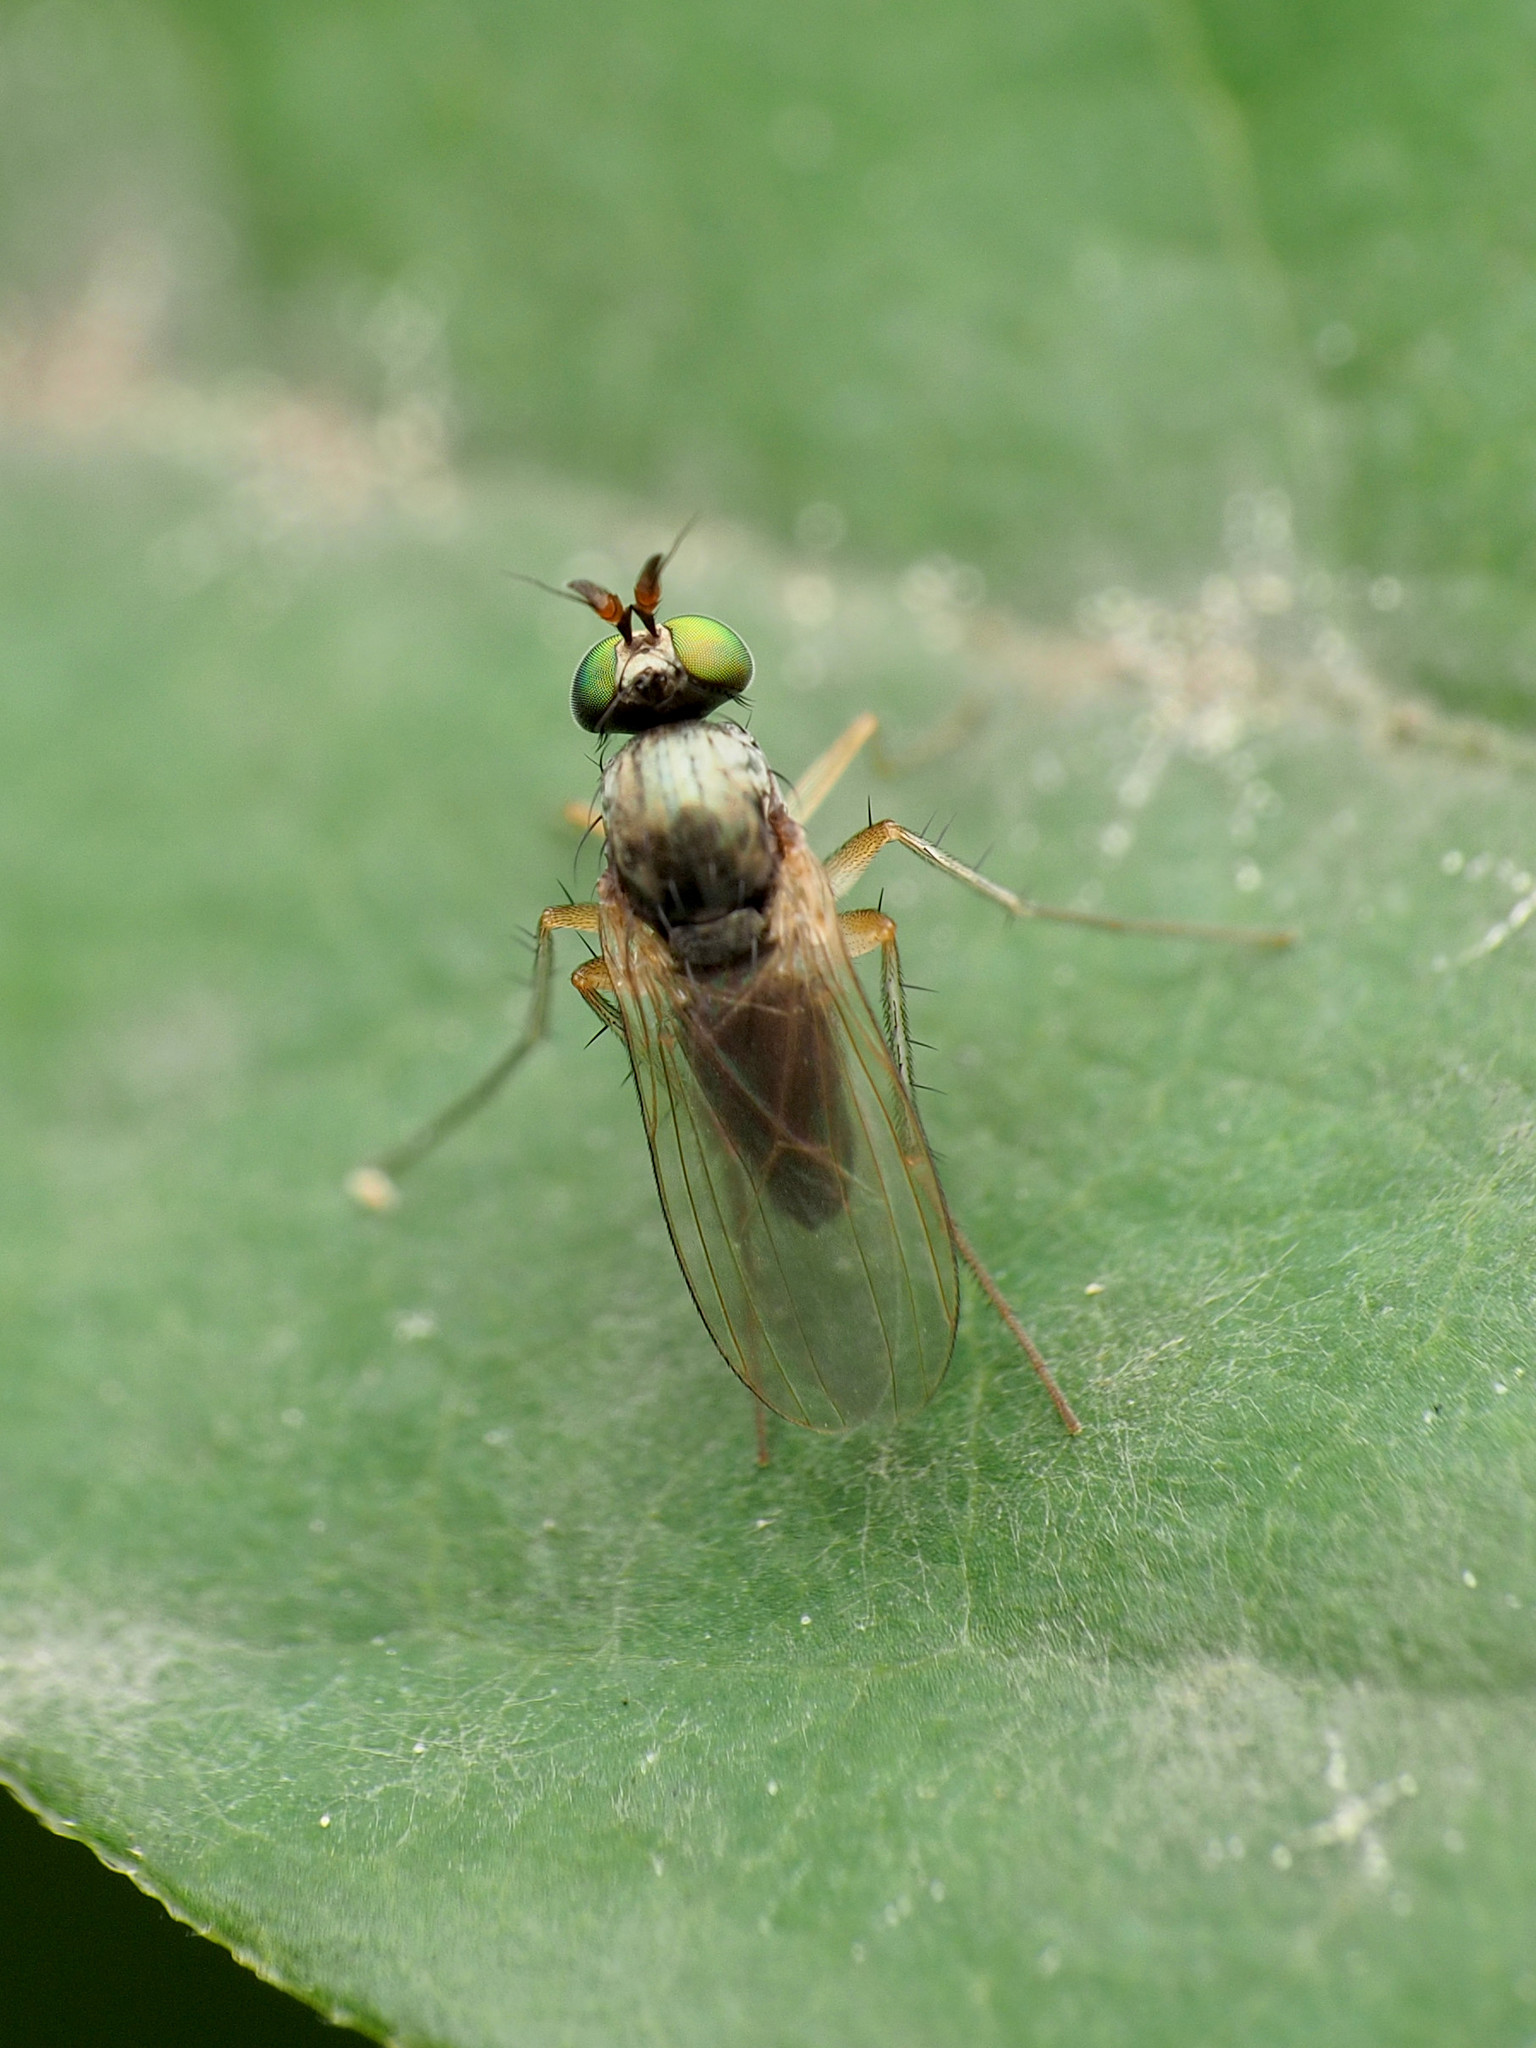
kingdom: Animalia
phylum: Arthropoda
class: Insecta
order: Diptera
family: Dolichopodidae
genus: Gymnopternus
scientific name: Gymnopternus opacus
